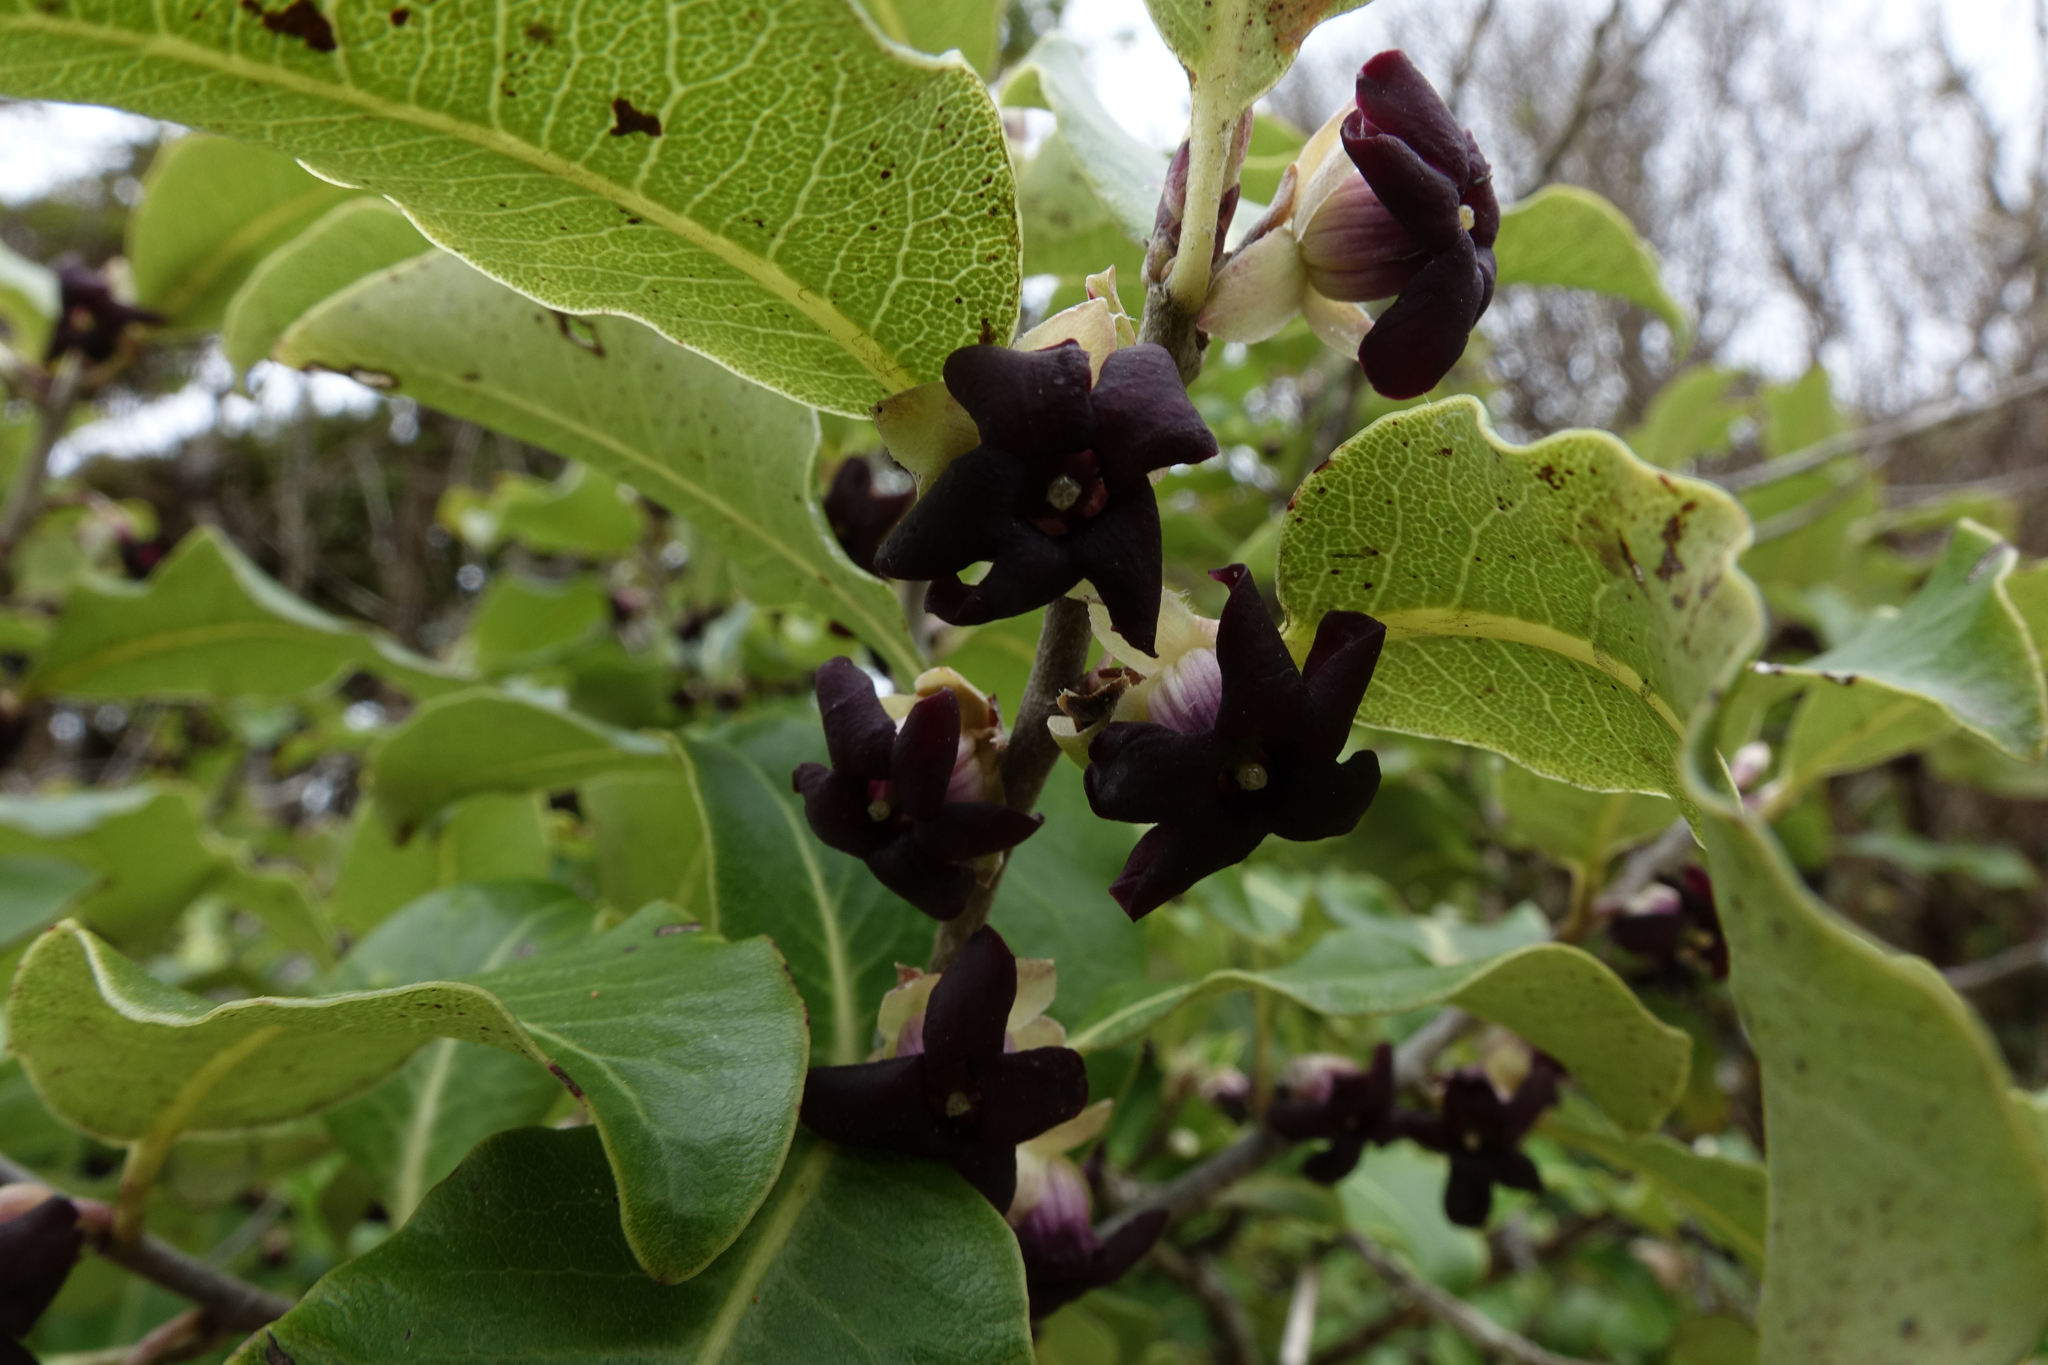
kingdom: Plantae
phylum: Tracheophyta
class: Magnoliopsida
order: Apiales
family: Pittosporaceae
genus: Pittosporum
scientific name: Pittosporum tenuifolium
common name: Kohuhu
